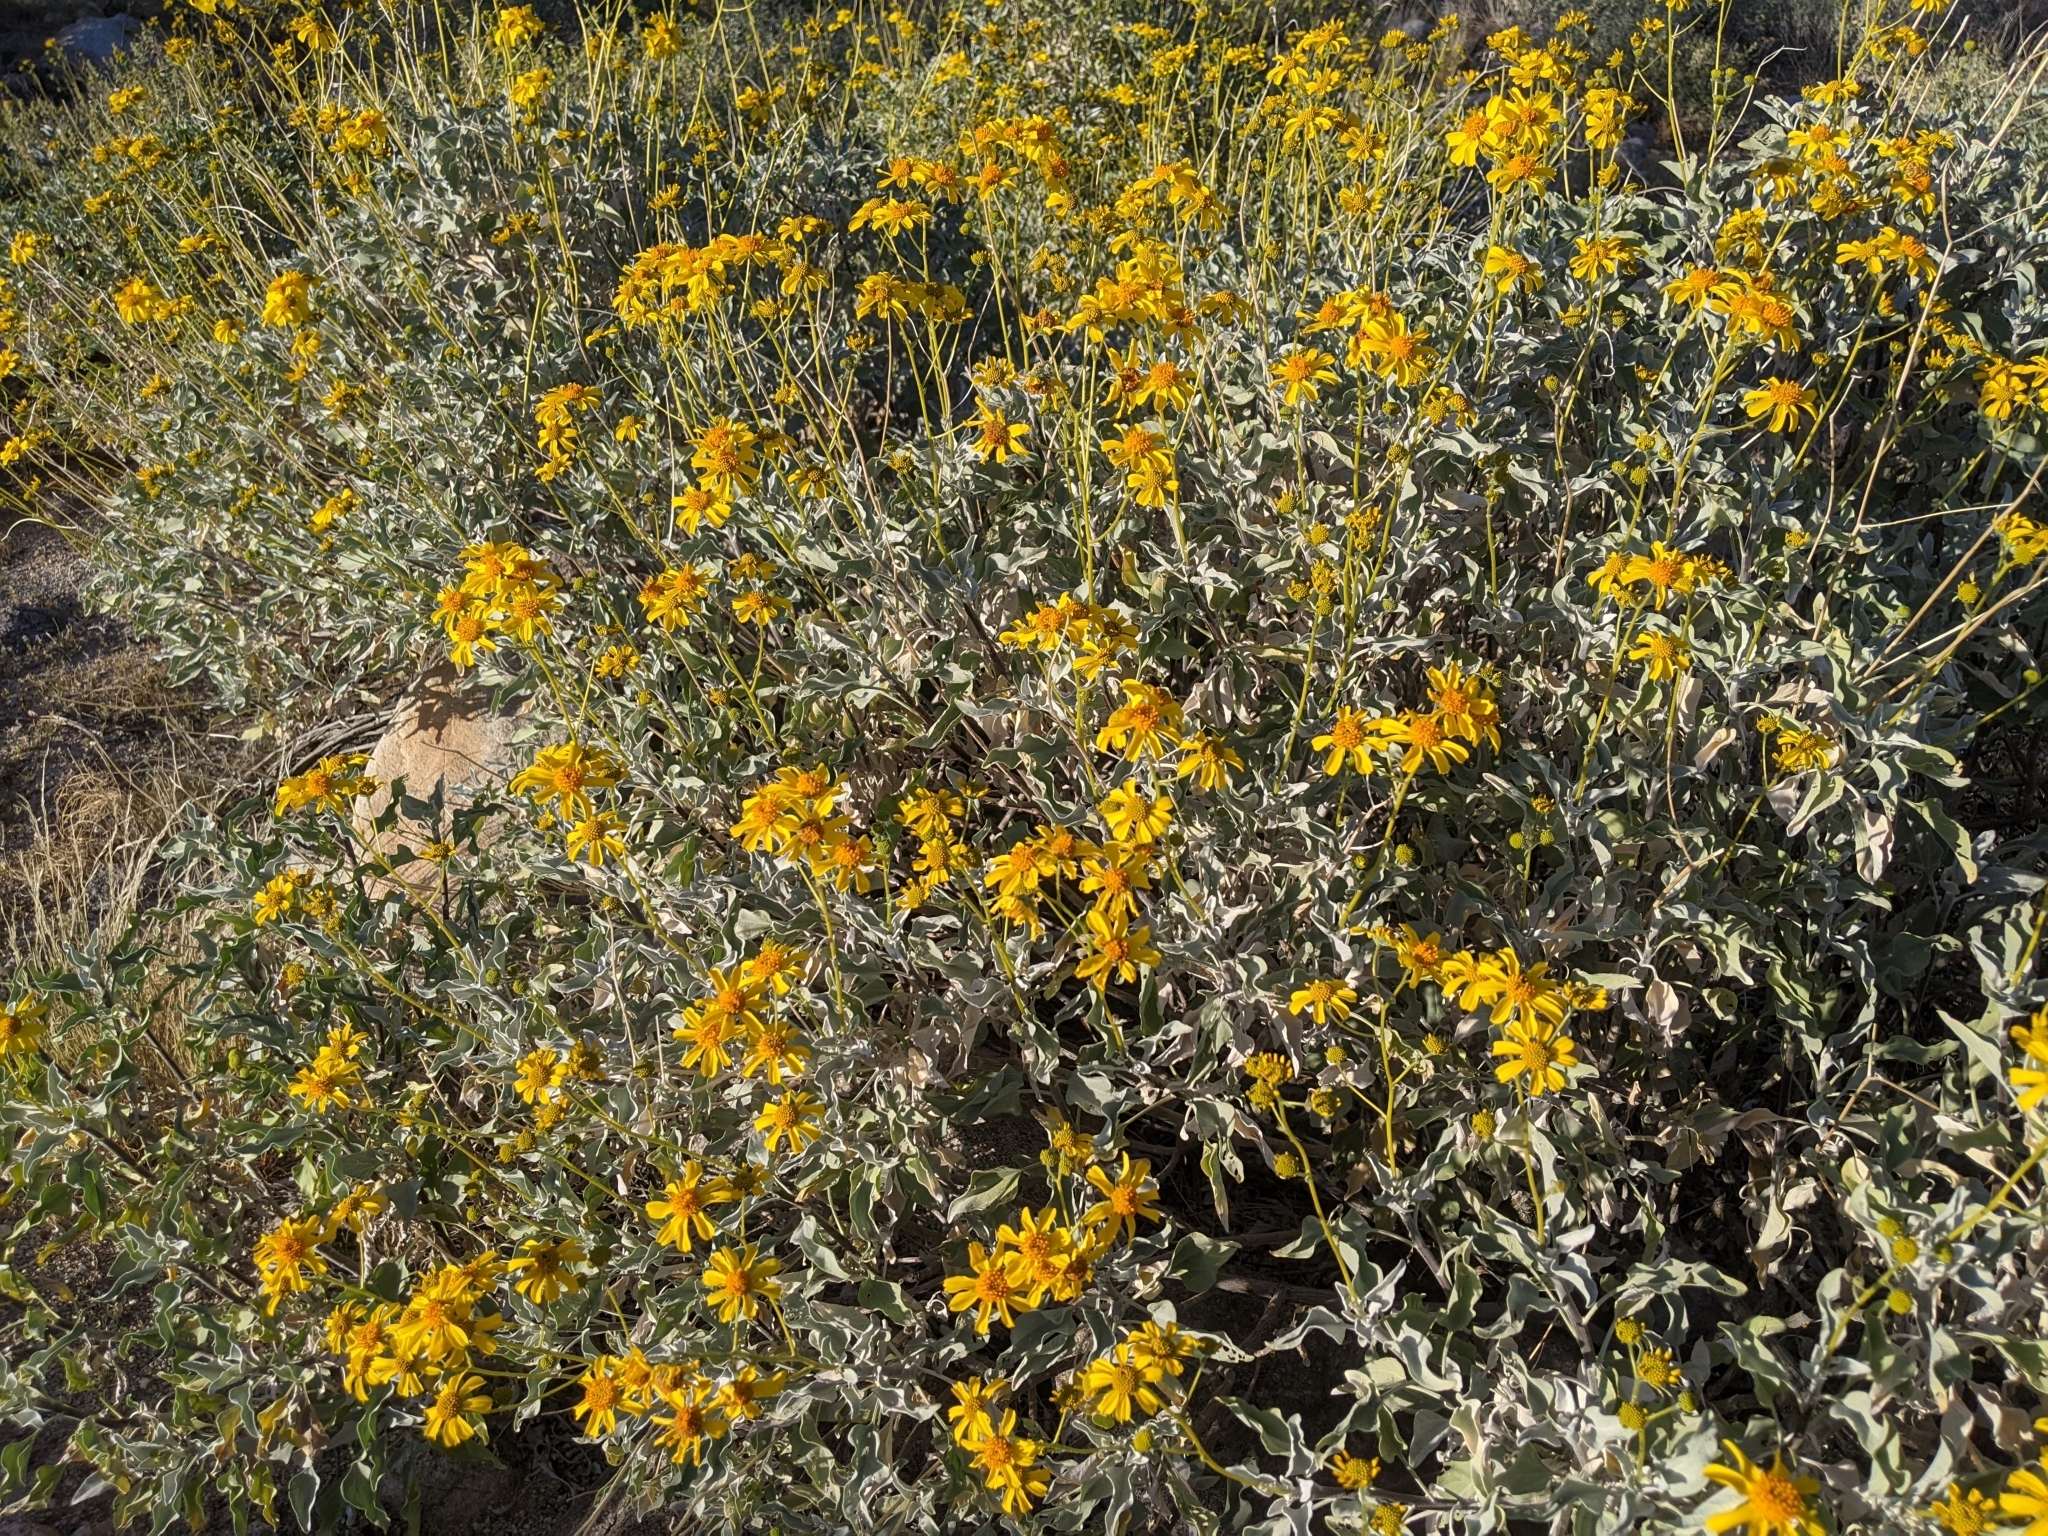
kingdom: Plantae
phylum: Tracheophyta
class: Magnoliopsida
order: Asterales
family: Asteraceae
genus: Encelia
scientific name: Encelia farinosa
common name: Brittlebush
